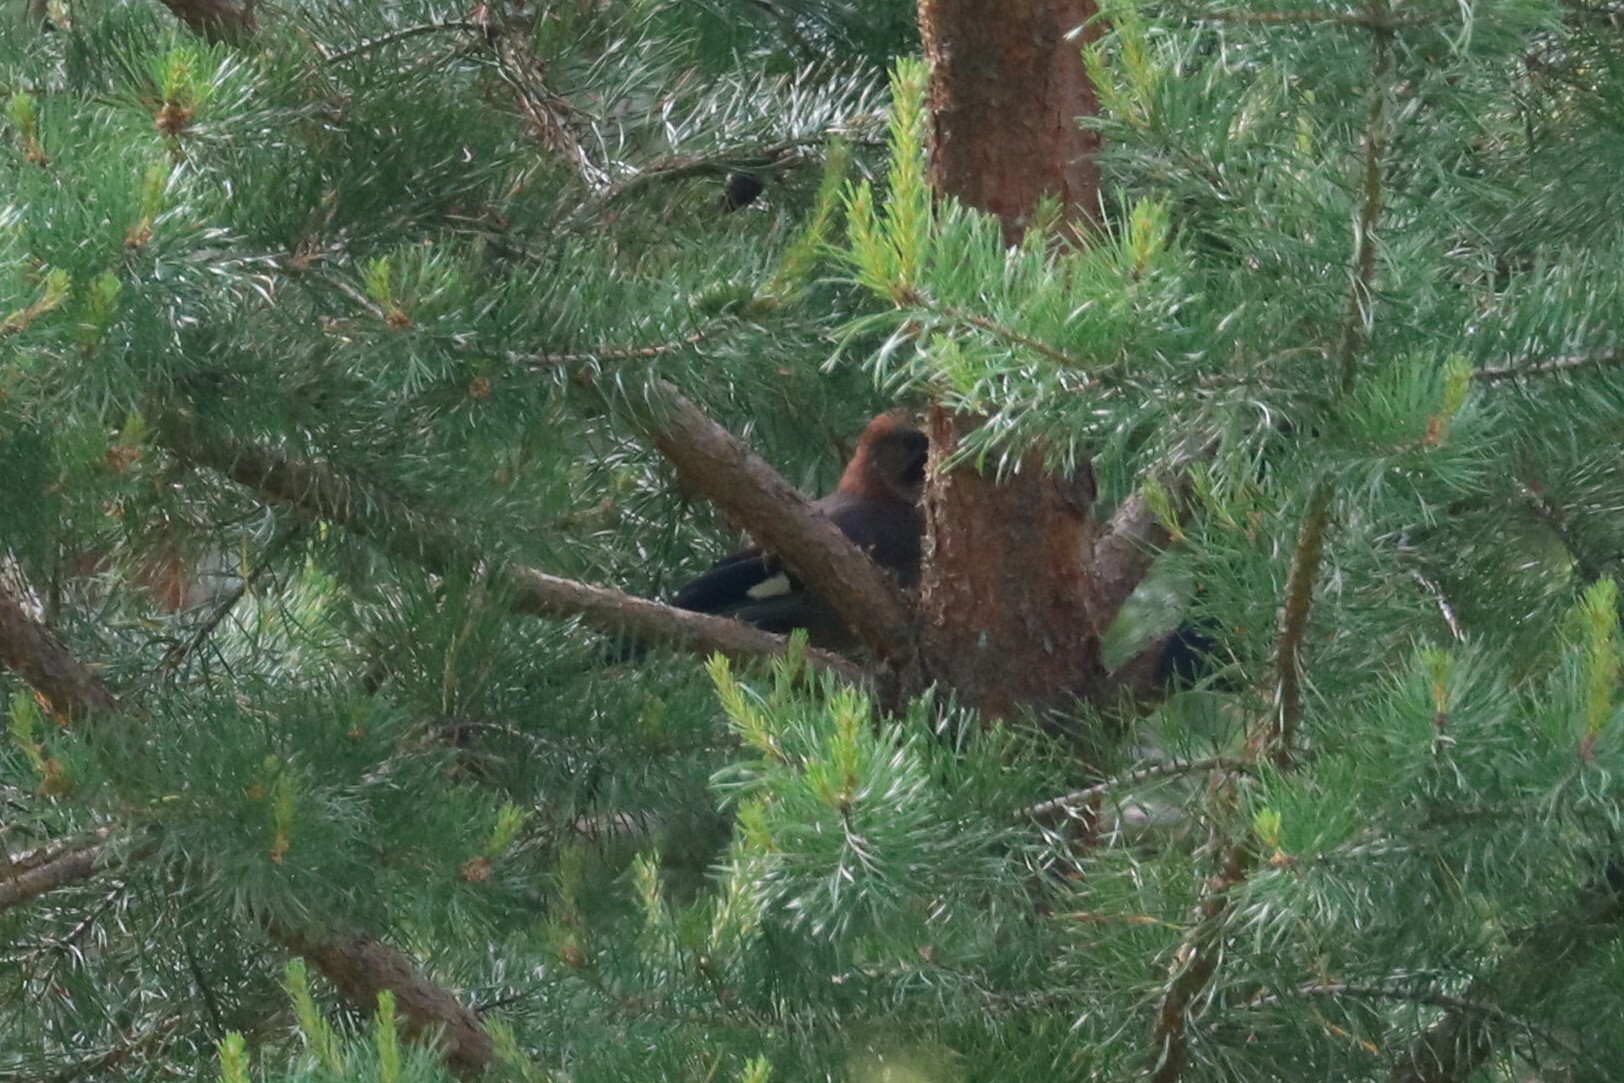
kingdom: Animalia
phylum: Chordata
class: Aves
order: Passeriformes
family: Corvidae
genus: Garrulus
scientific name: Garrulus glandarius
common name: Eurasian jay
